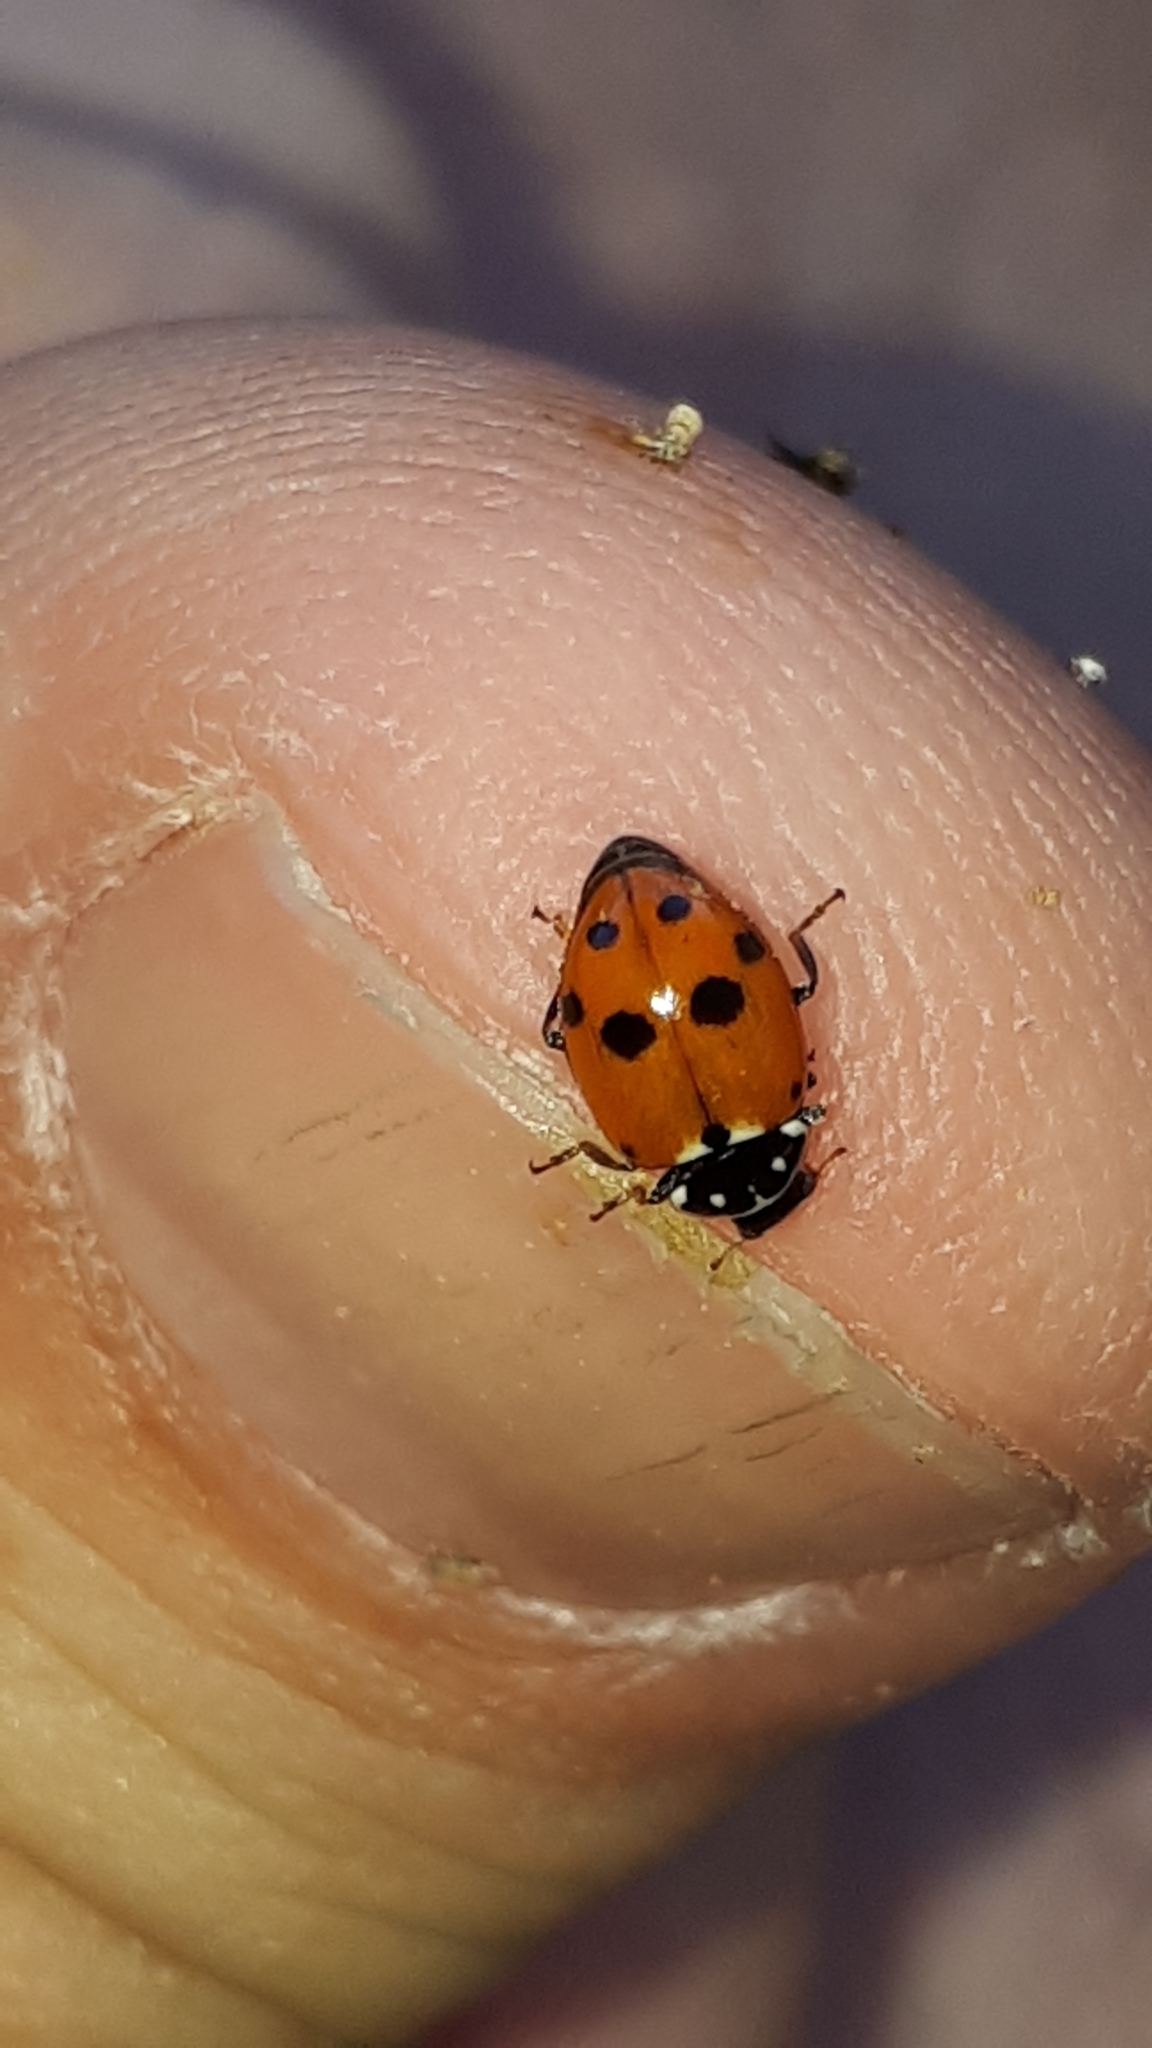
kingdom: Animalia
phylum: Arthropoda
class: Insecta
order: Coleoptera
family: Coccinellidae
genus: Hippodamia
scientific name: Hippodamia variegata
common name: Ladybird beetle
